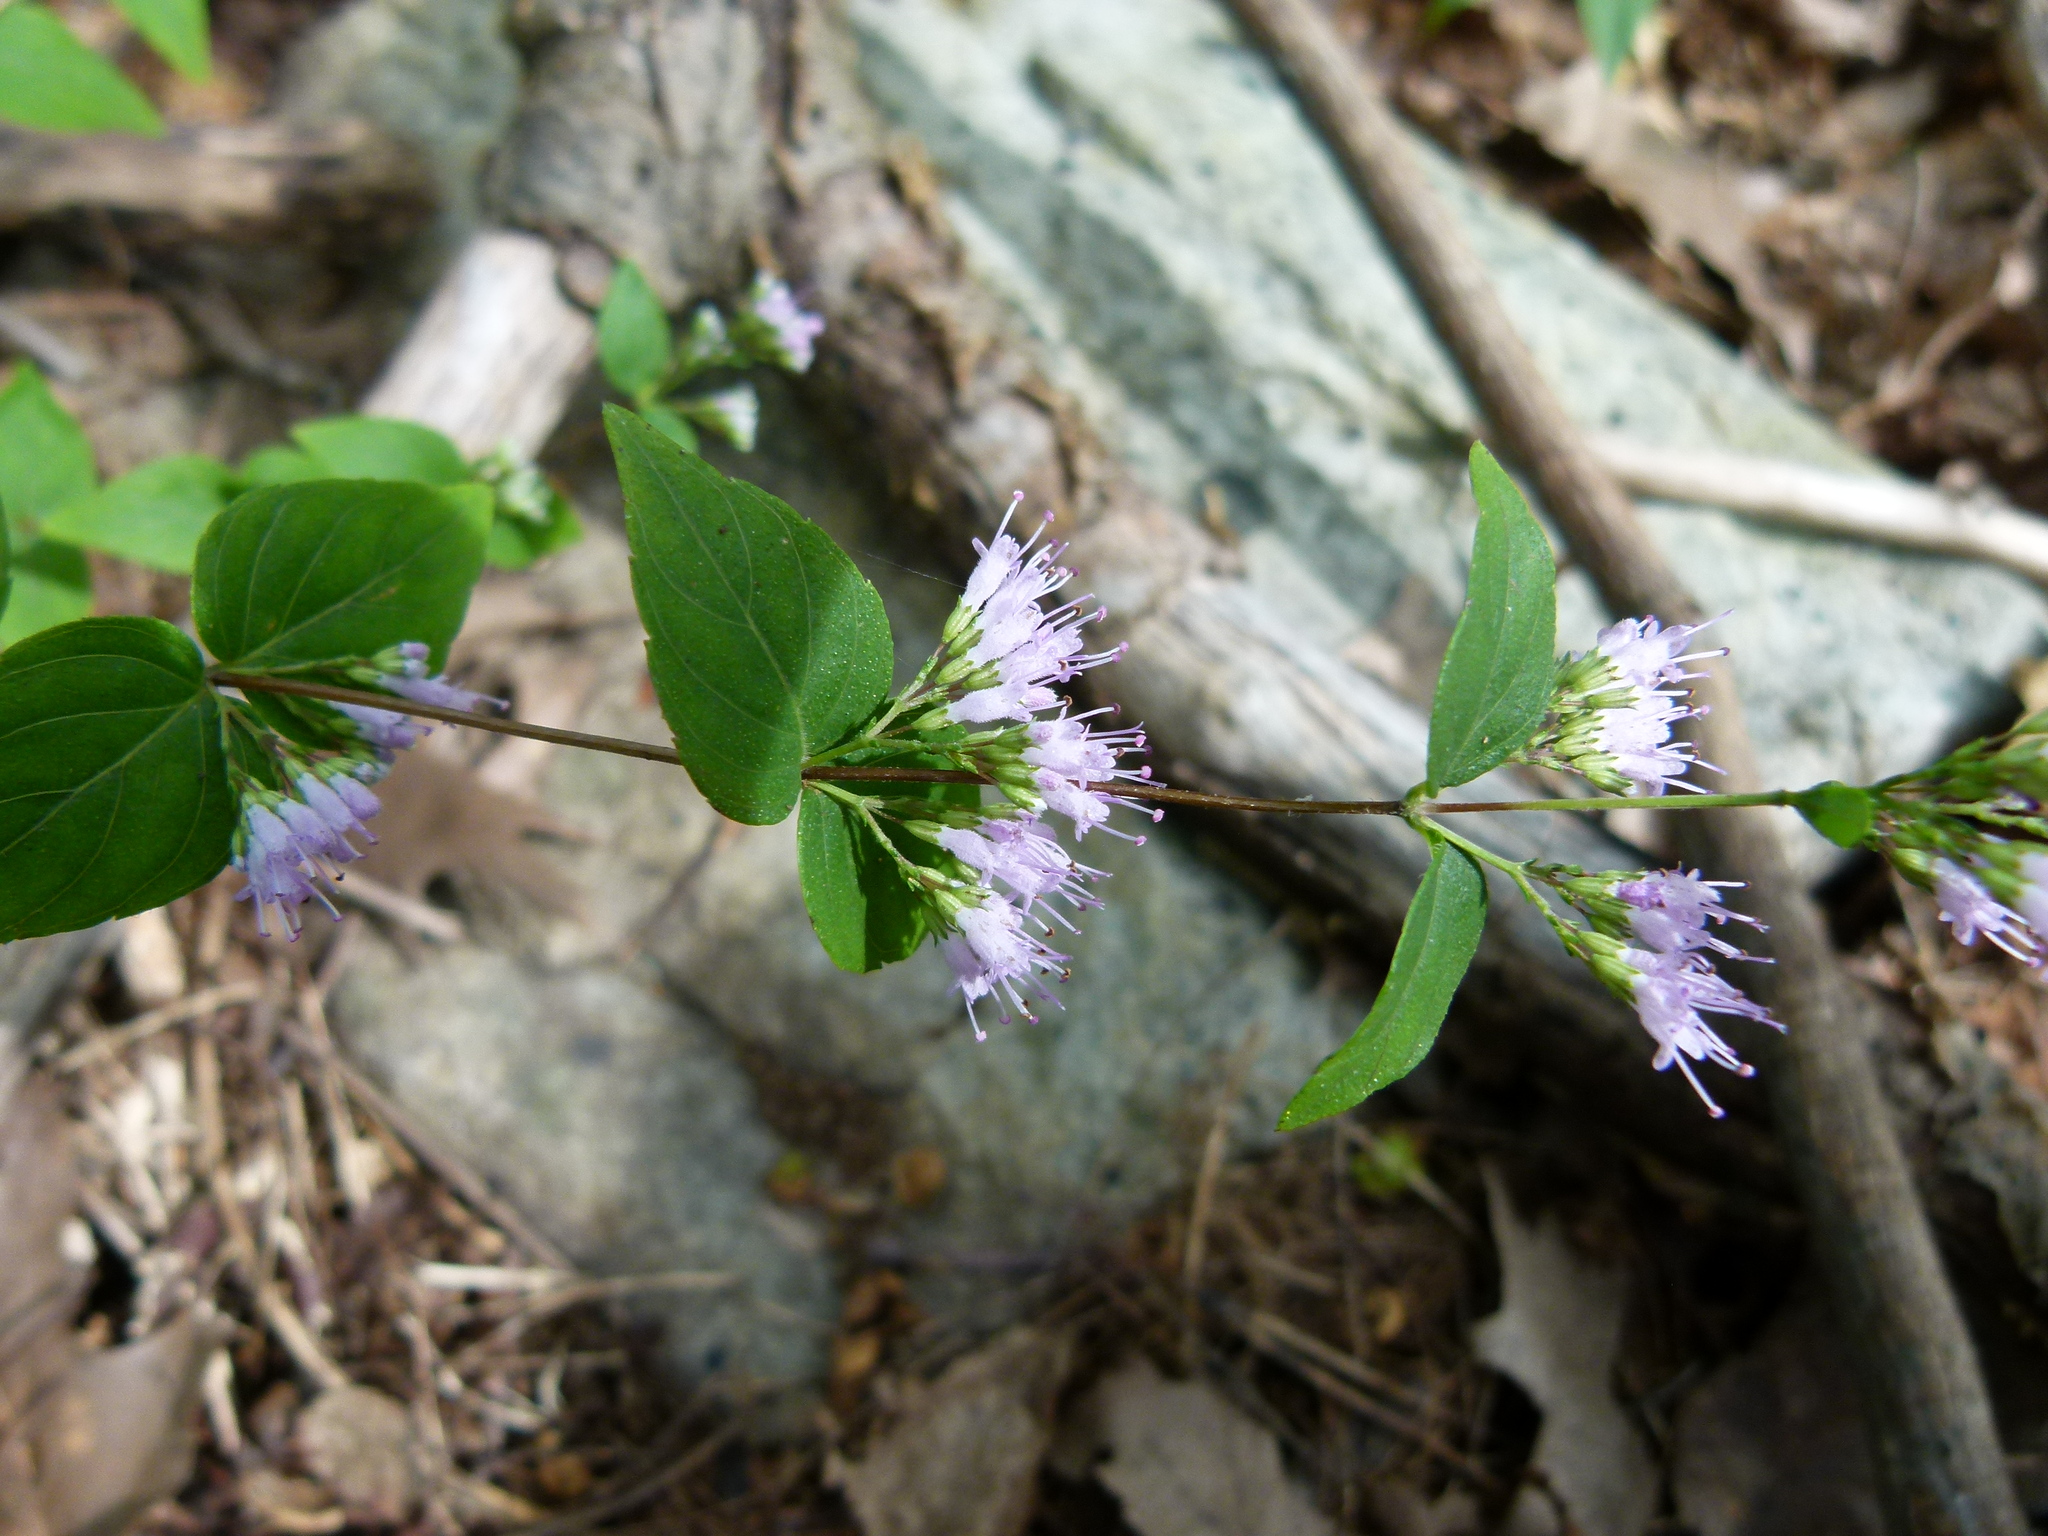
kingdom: Plantae
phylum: Tracheophyta
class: Magnoliopsida
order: Lamiales
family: Lamiaceae
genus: Cunila
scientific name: Cunila origanoides
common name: American dittany
